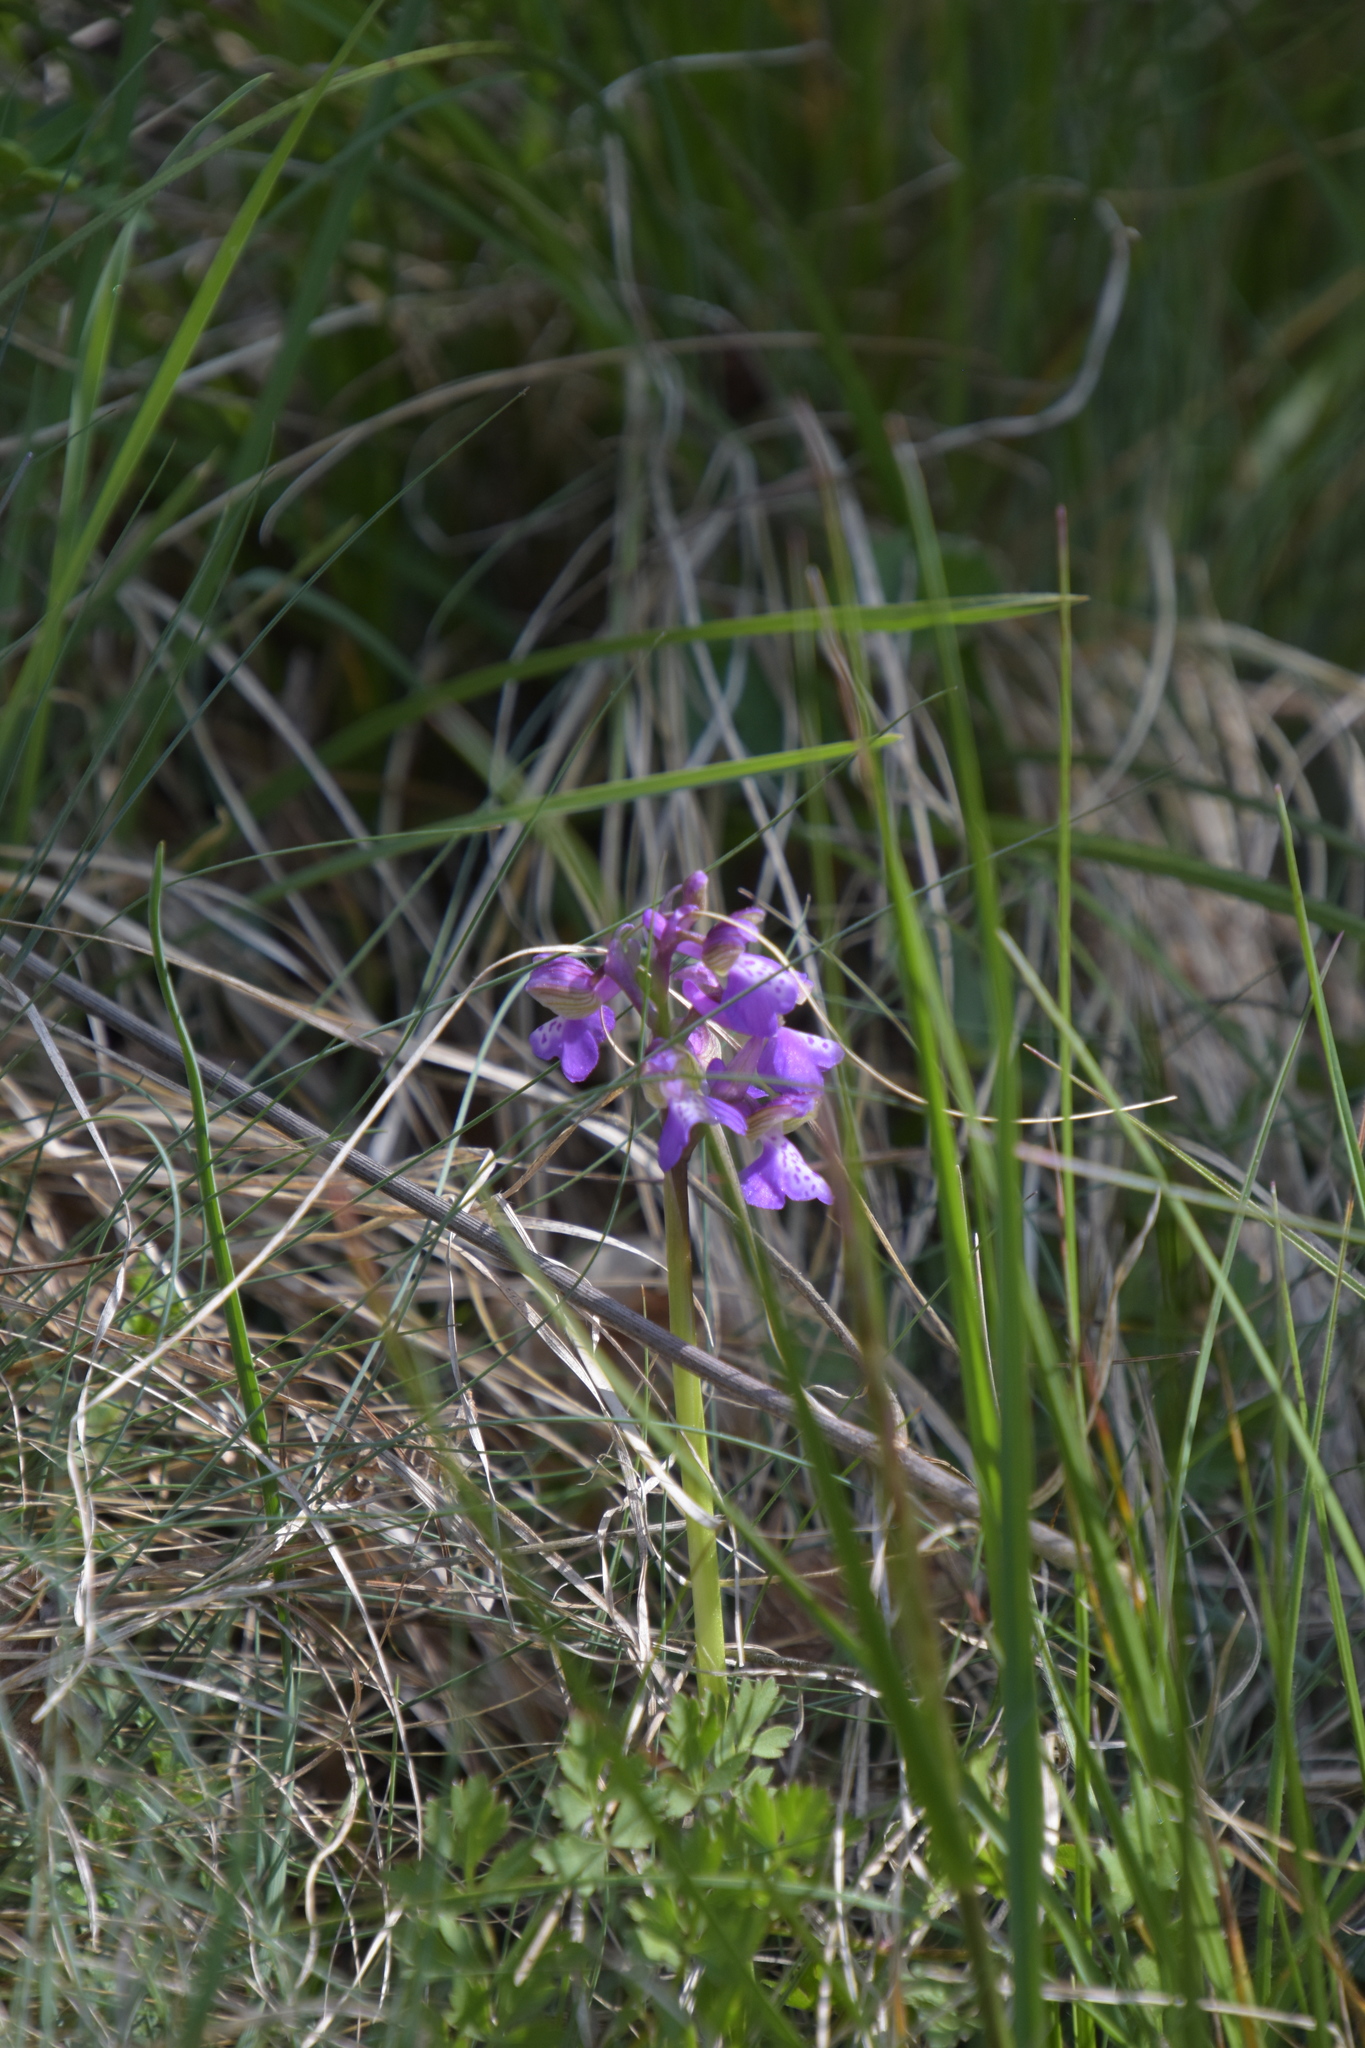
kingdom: Plantae
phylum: Tracheophyta
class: Liliopsida
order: Asparagales
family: Orchidaceae
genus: Anacamptis
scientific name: Anacamptis morio
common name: Green-winged orchid
